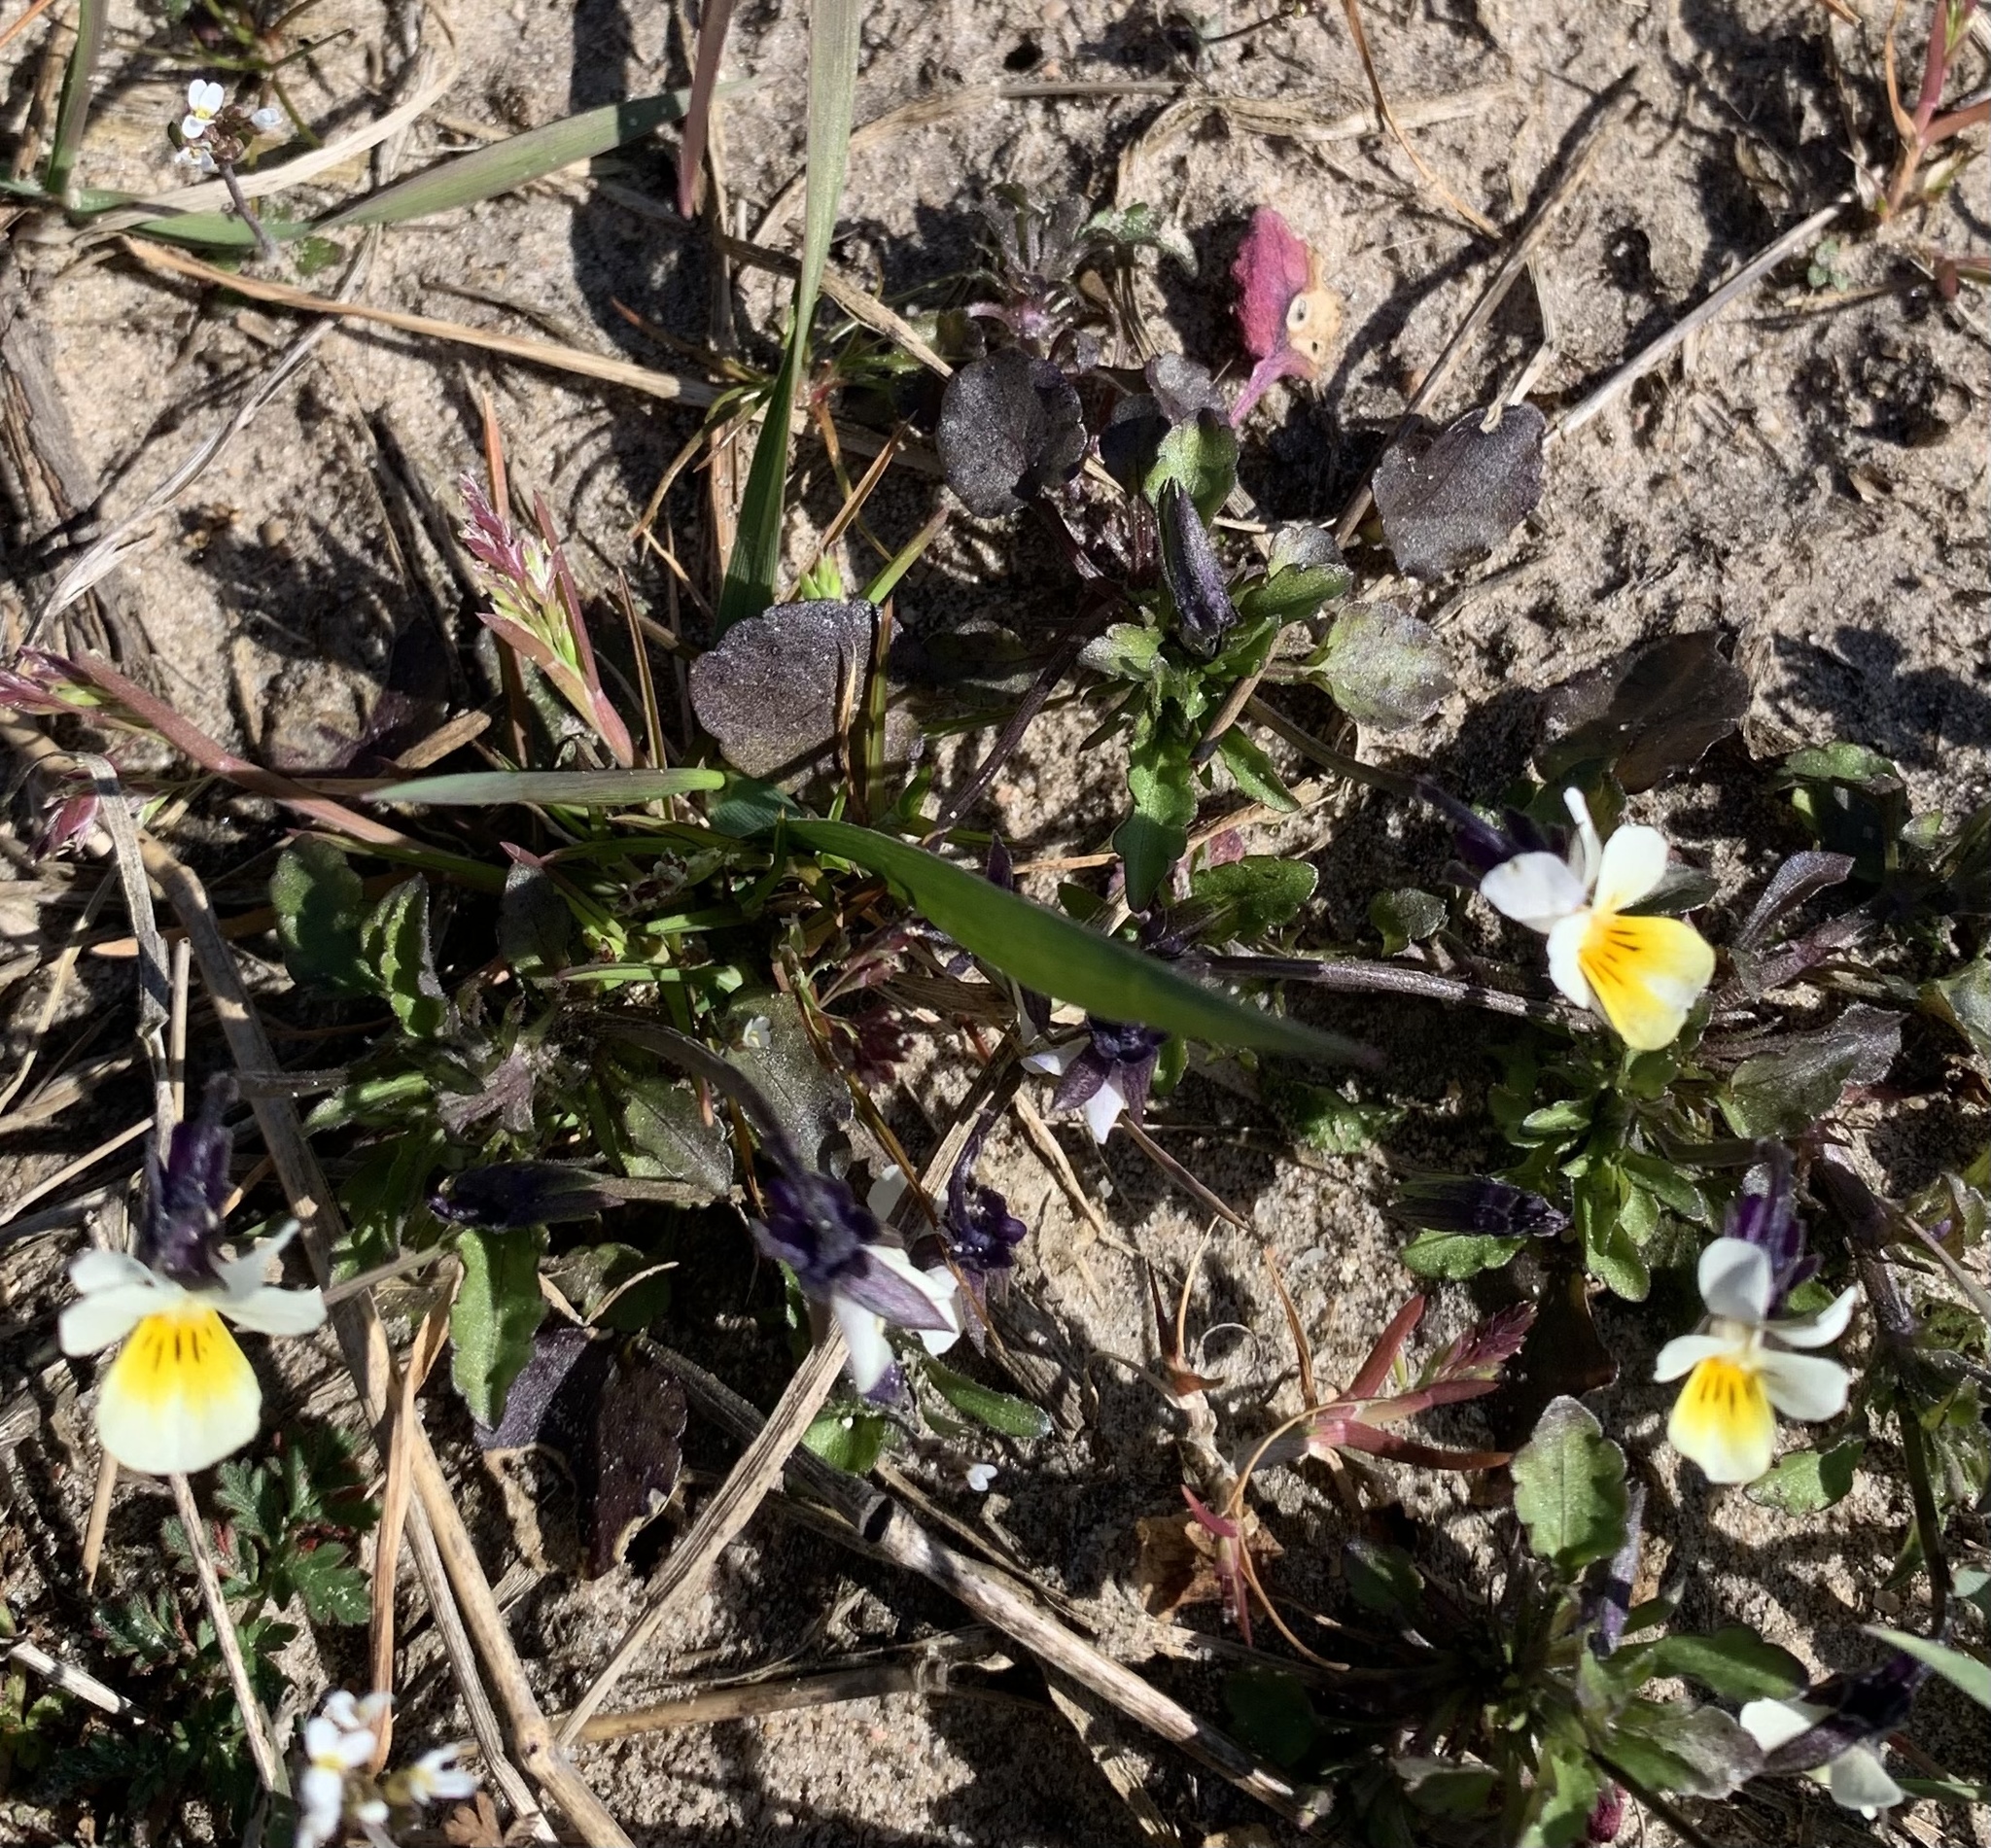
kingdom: Plantae
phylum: Tracheophyta
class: Magnoliopsida
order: Malpighiales
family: Violaceae
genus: Viola
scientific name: Viola arvensis
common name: Field pansy
